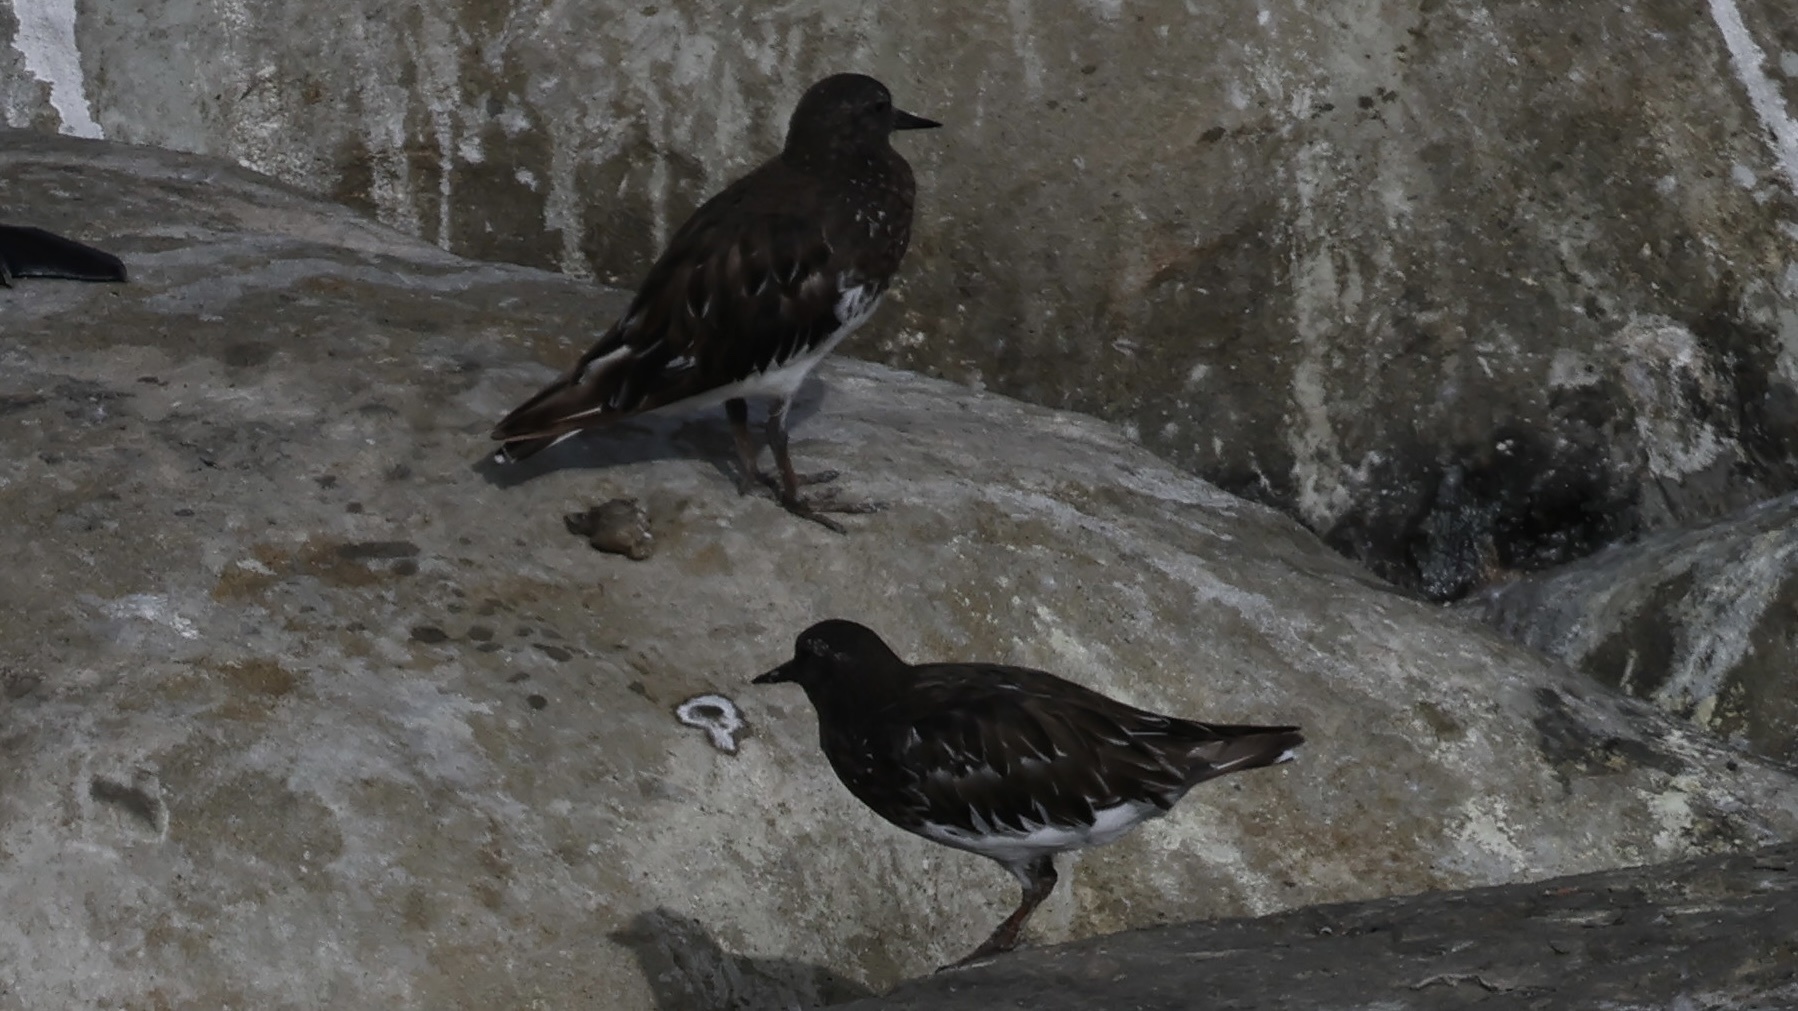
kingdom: Animalia
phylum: Chordata
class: Aves
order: Charadriiformes
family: Scolopacidae
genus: Arenaria
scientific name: Arenaria melanocephala
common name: Black turnstone
